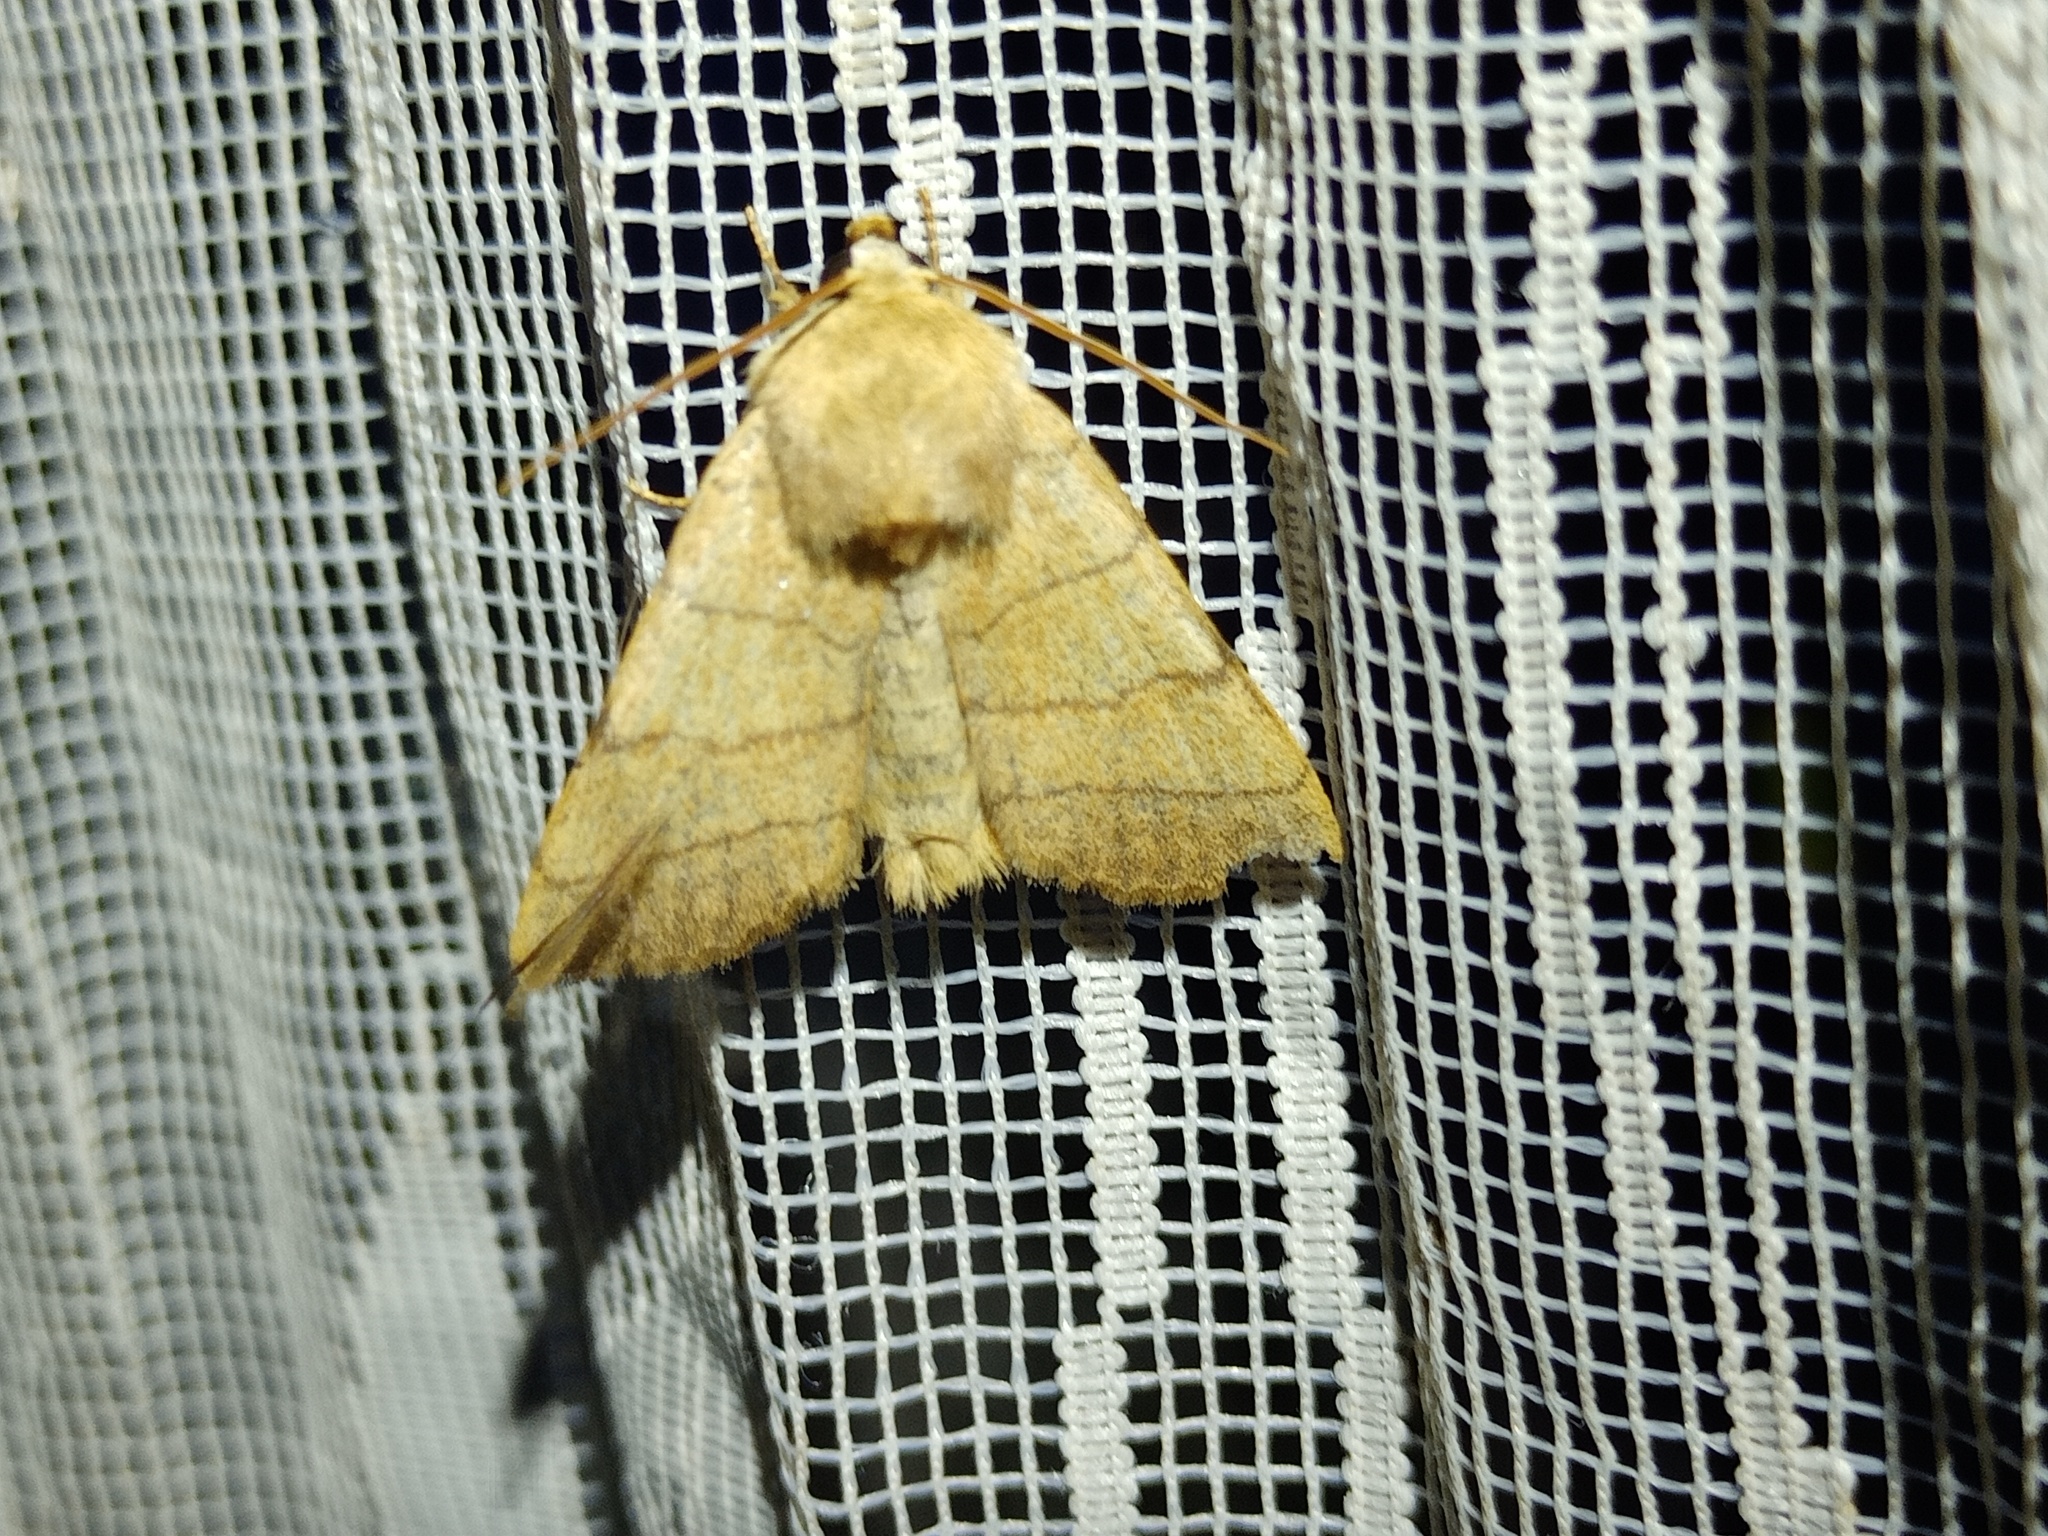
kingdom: Animalia
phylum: Arthropoda
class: Insecta
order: Lepidoptera
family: Noctuidae
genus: Charanyca
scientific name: Charanyca trigrammica
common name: Treble lines
